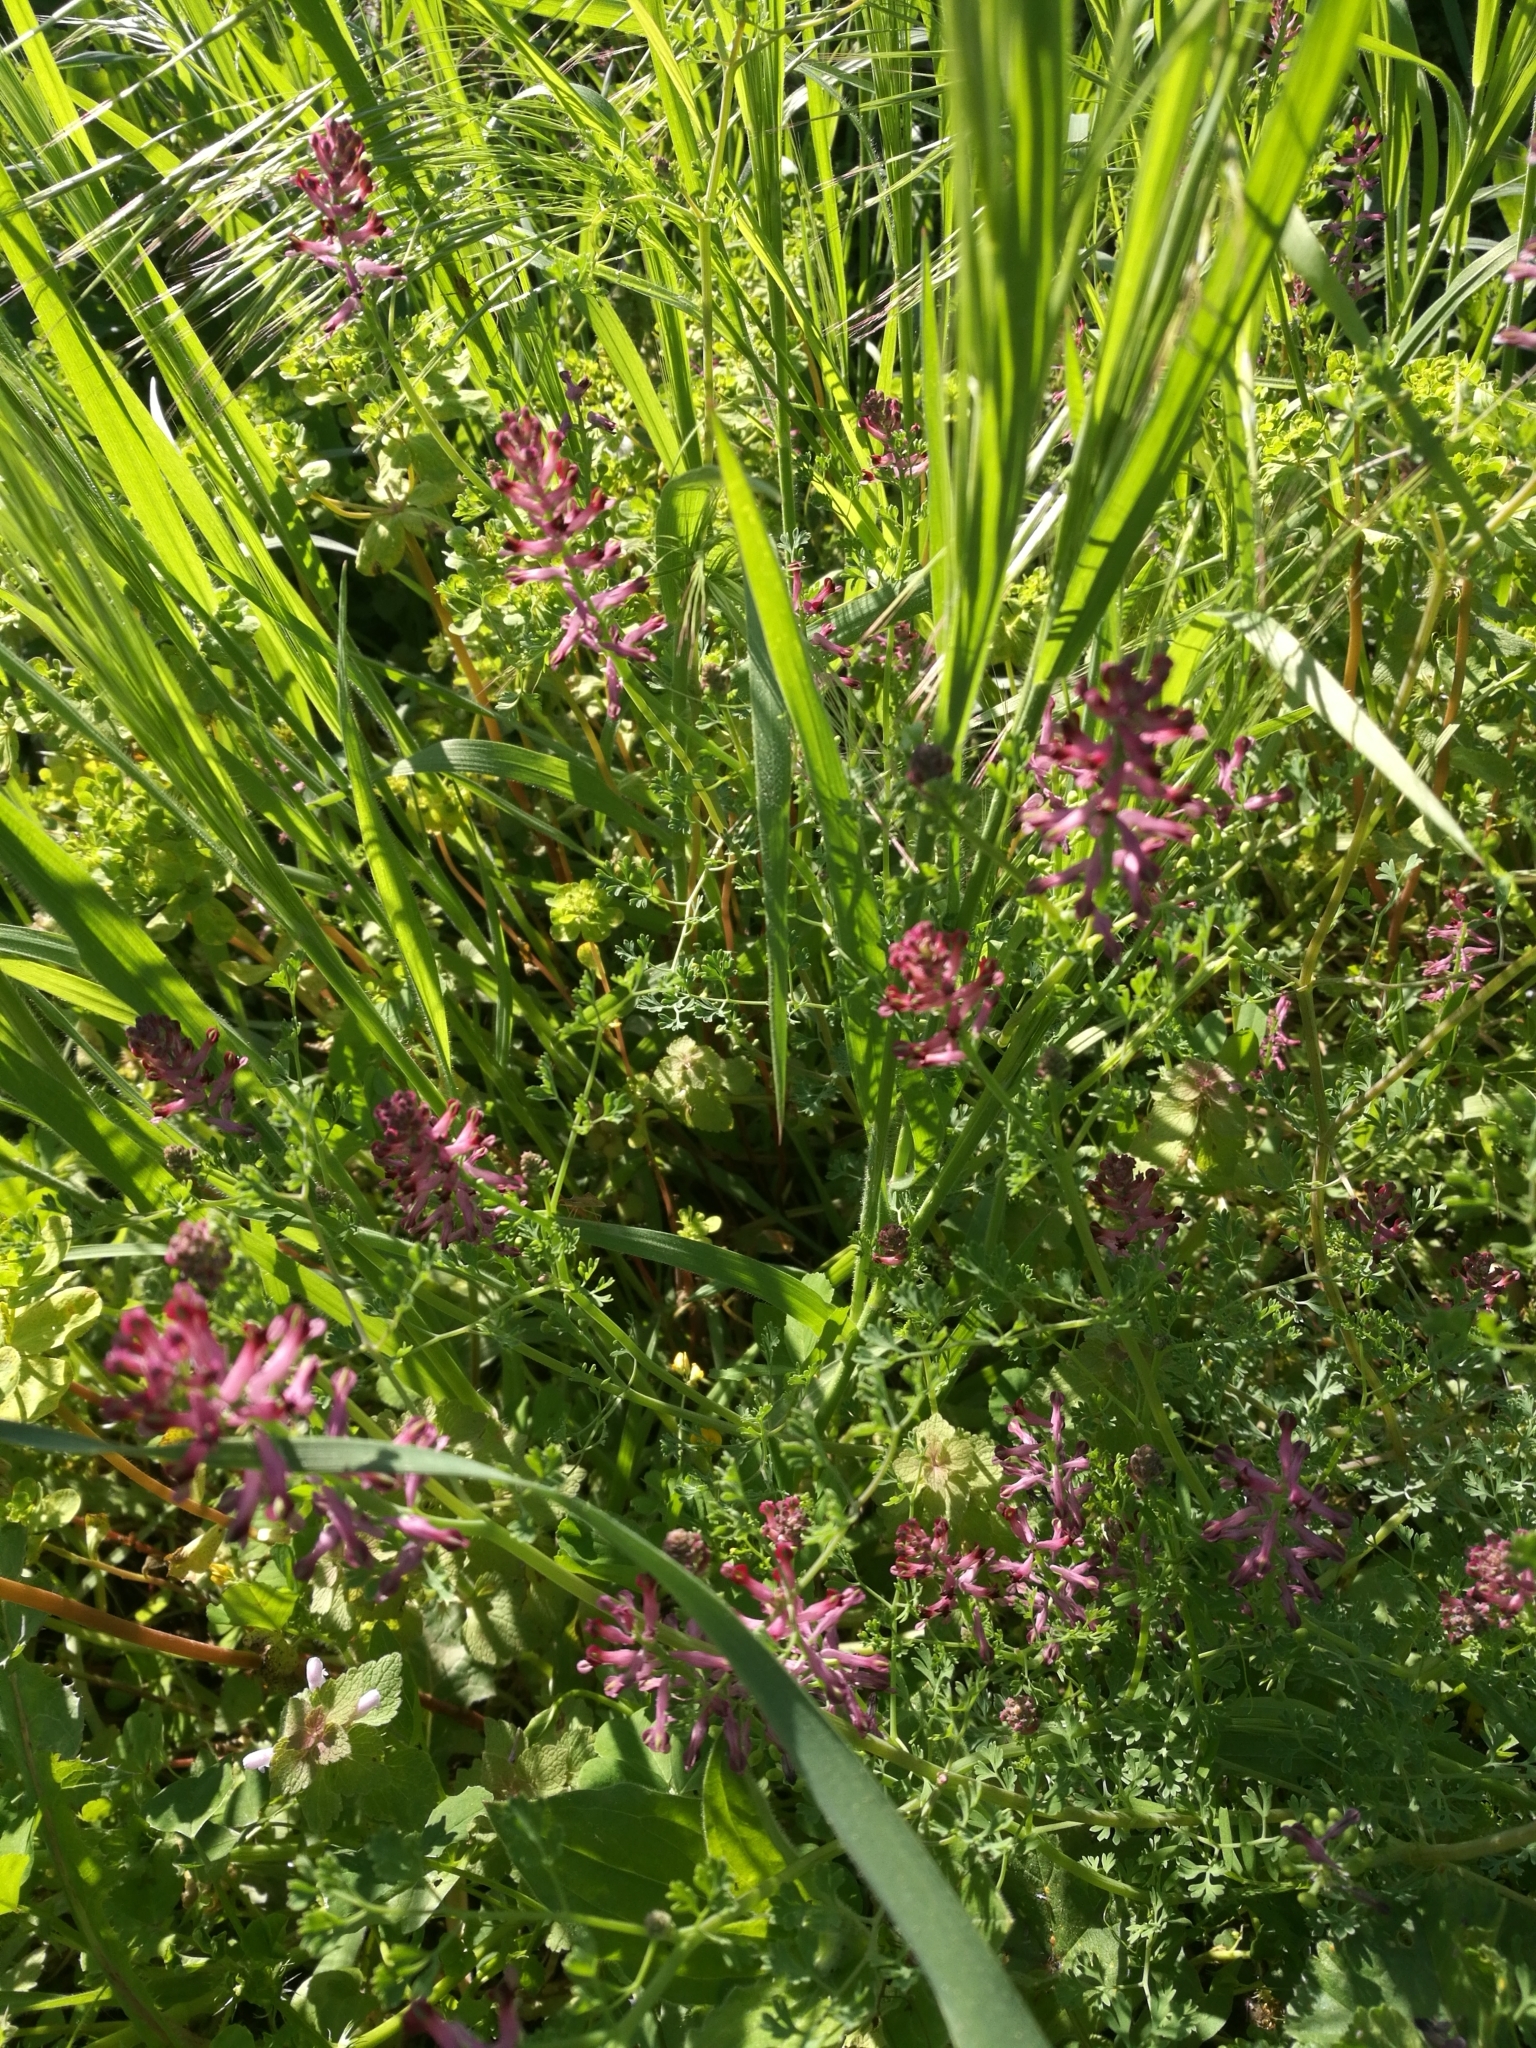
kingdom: Plantae
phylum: Tracheophyta
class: Magnoliopsida
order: Ranunculales
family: Papaveraceae
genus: Fumaria
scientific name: Fumaria officinalis
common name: Common fumitory
